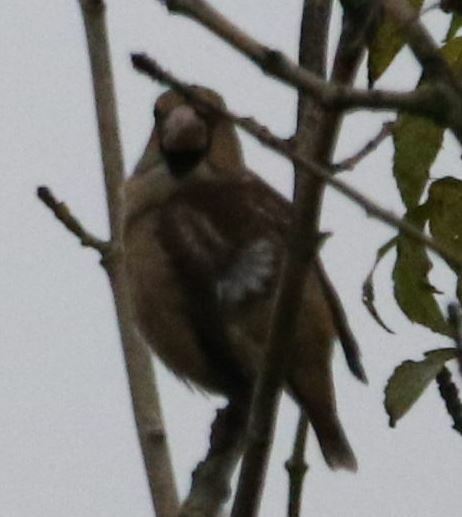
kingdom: Animalia
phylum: Chordata
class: Aves
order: Passeriformes
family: Fringillidae
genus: Coccothraustes
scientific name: Coccothraustes coccothraustes
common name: Hawfinch
